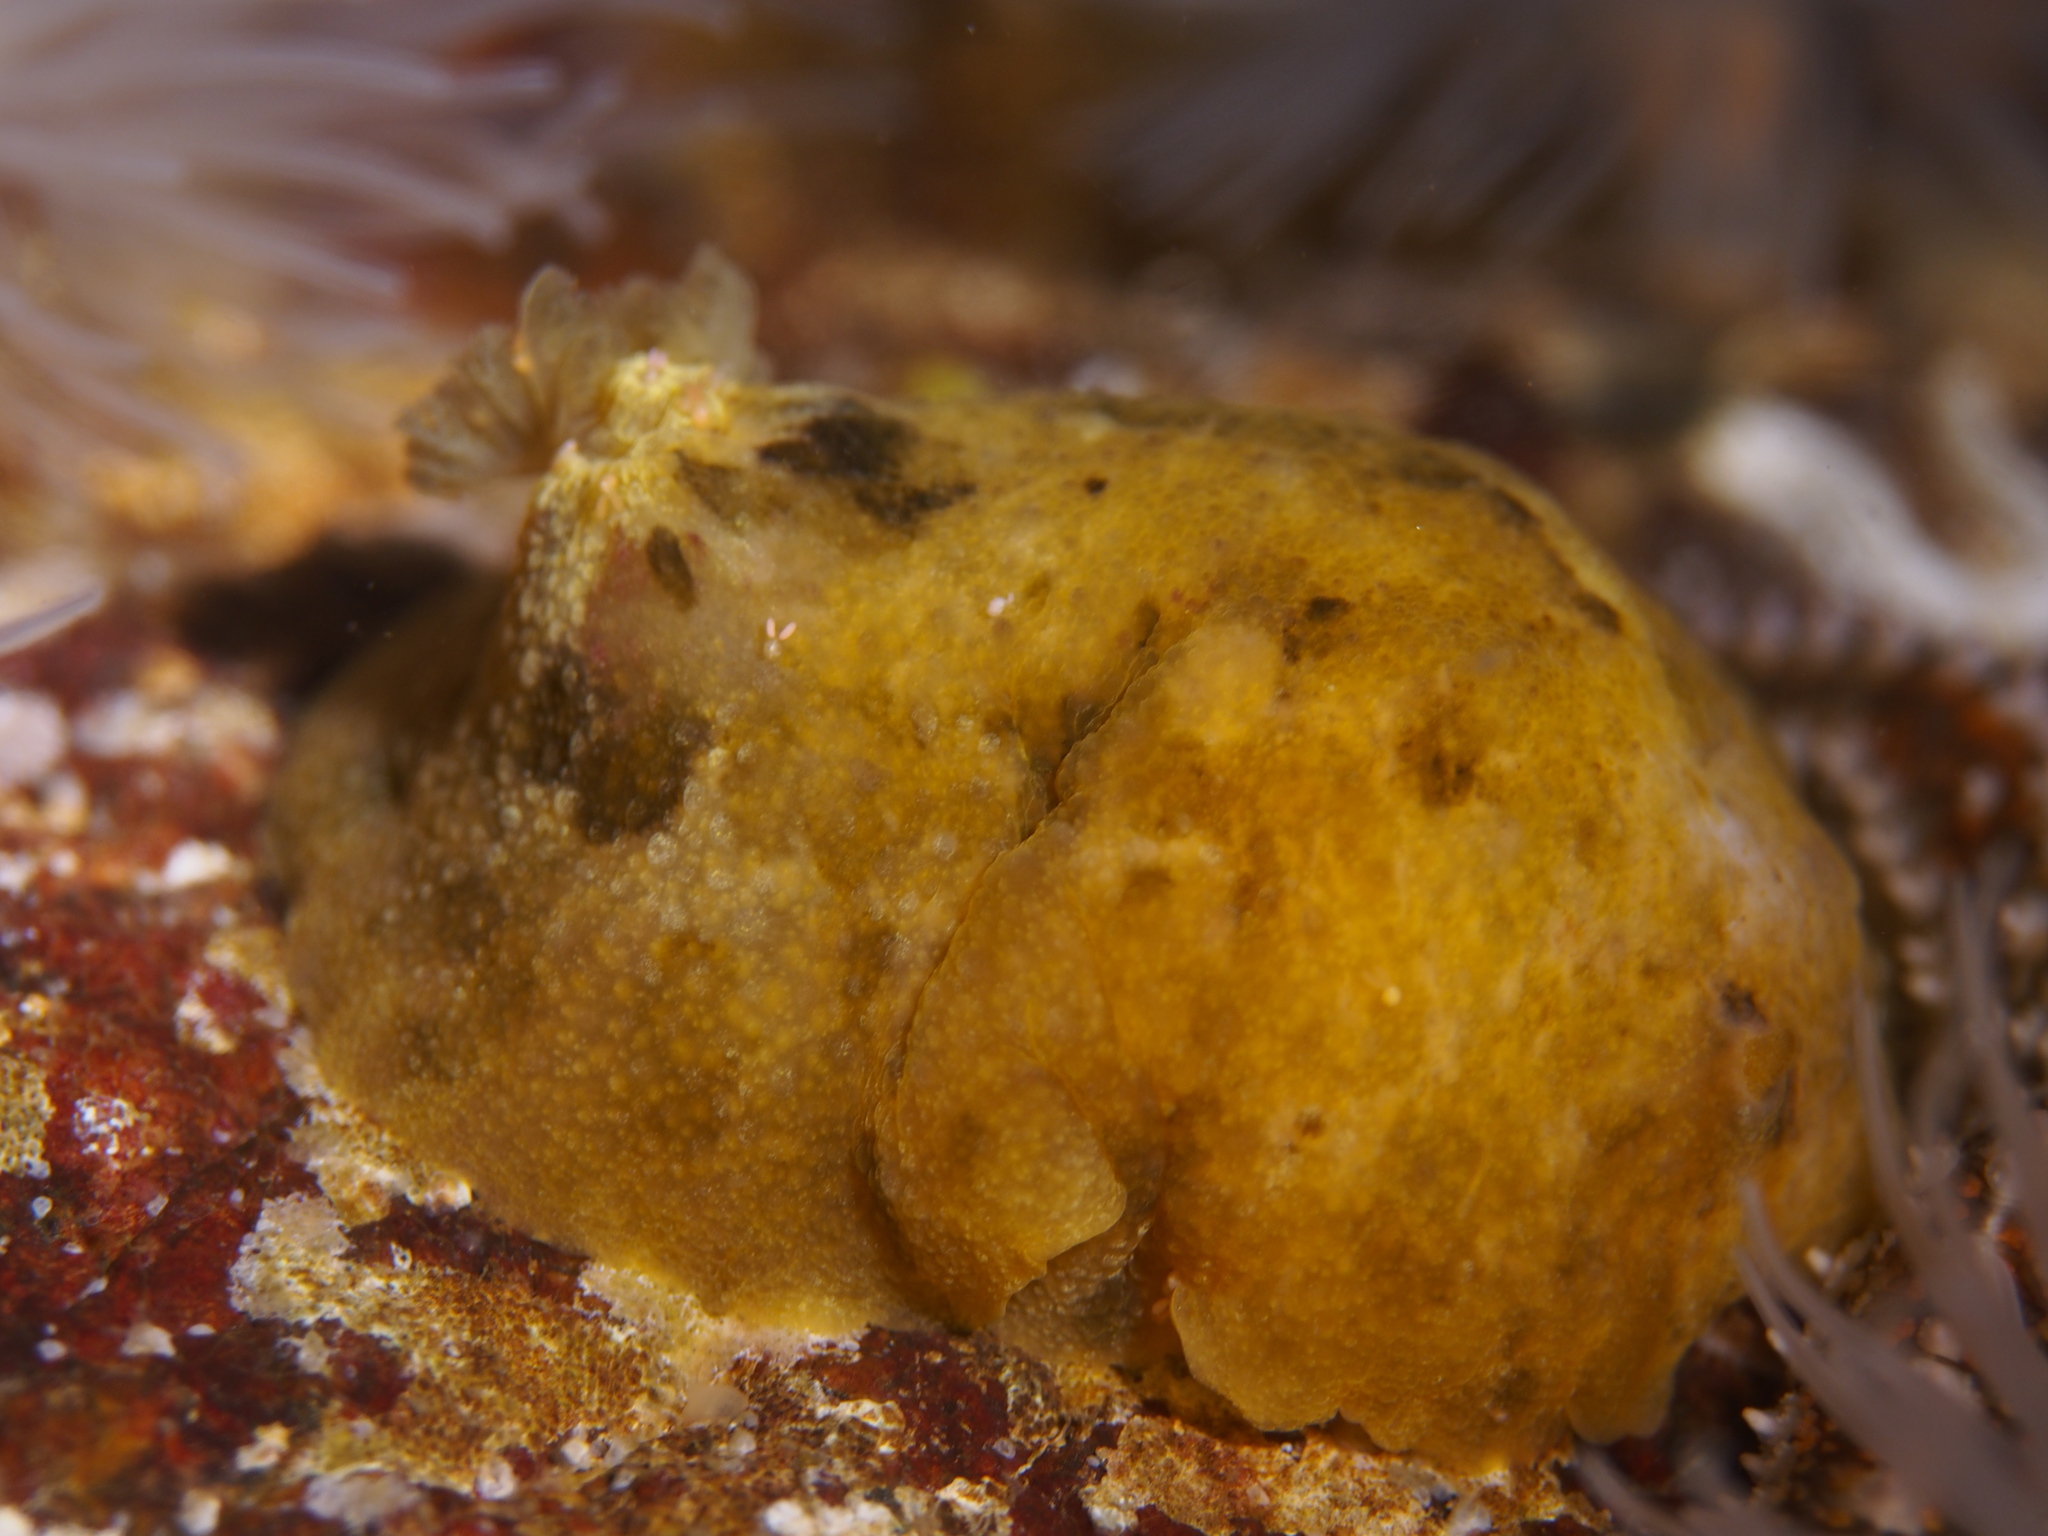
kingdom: Animalia
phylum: Mollusca
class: Gastropoda
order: Nudibranchia
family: Dorididae
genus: Doris
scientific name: Doris pseudoargus
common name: Sea lemon
